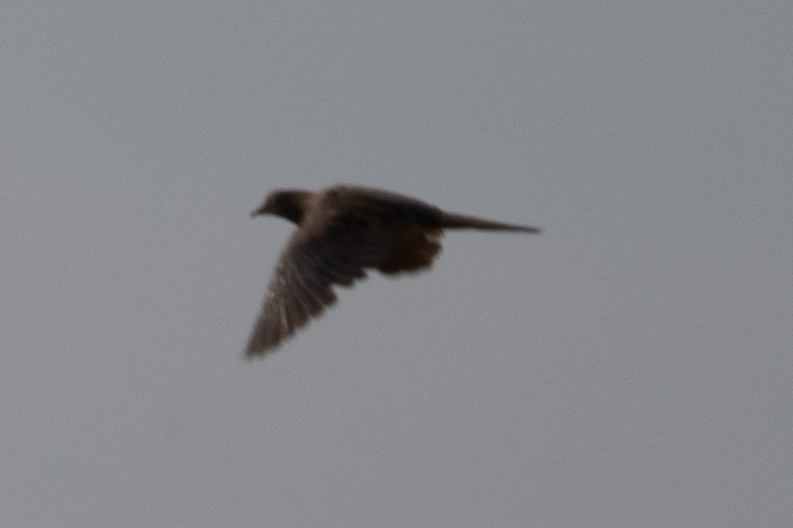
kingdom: Animalia
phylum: Chordata
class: Aves
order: Columbiformes
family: Columbidae
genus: Zenaida
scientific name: Zenaida macroura
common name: Mourning dove
